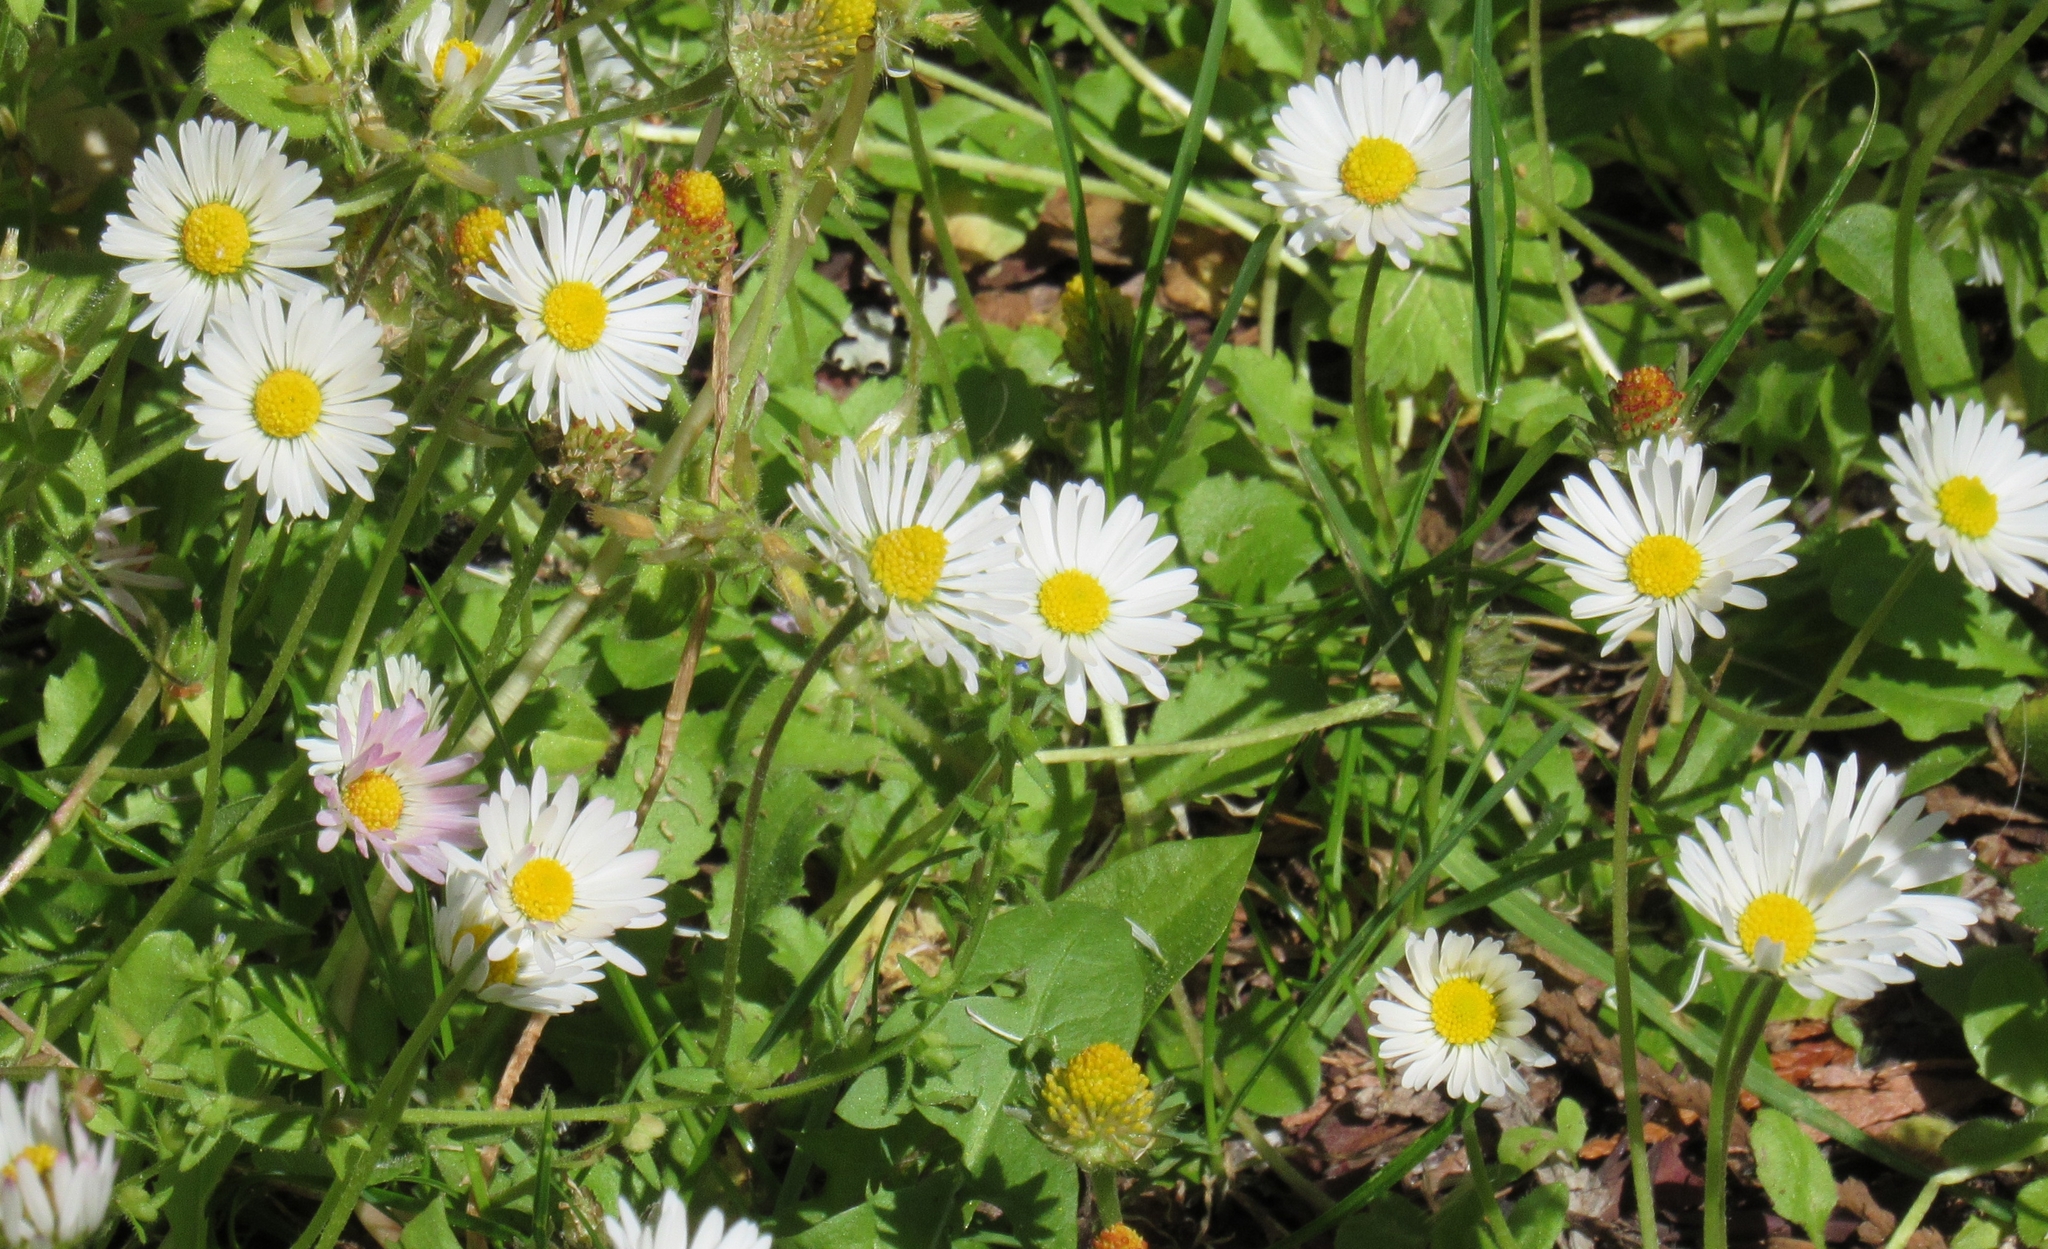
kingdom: Plantae
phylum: Tracheophyta
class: Magnoliopsida
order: Asterales
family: Asteraceae
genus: Bellis
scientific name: Bellis perennis
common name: Lawndaisy
